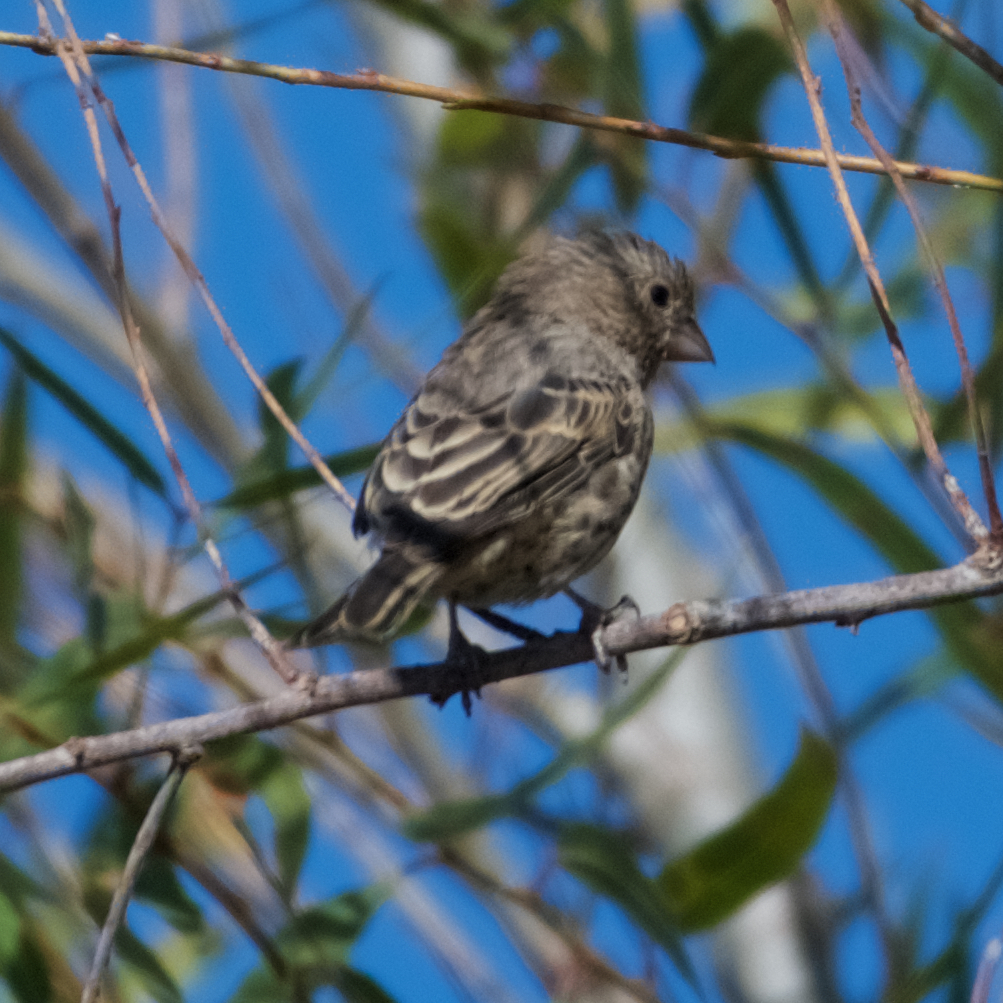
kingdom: Animalia
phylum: Chordata
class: Aves
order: Passeriformes
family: Fringillidae
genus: Haemorhous
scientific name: Haemorhous mexicanus
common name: House finch
